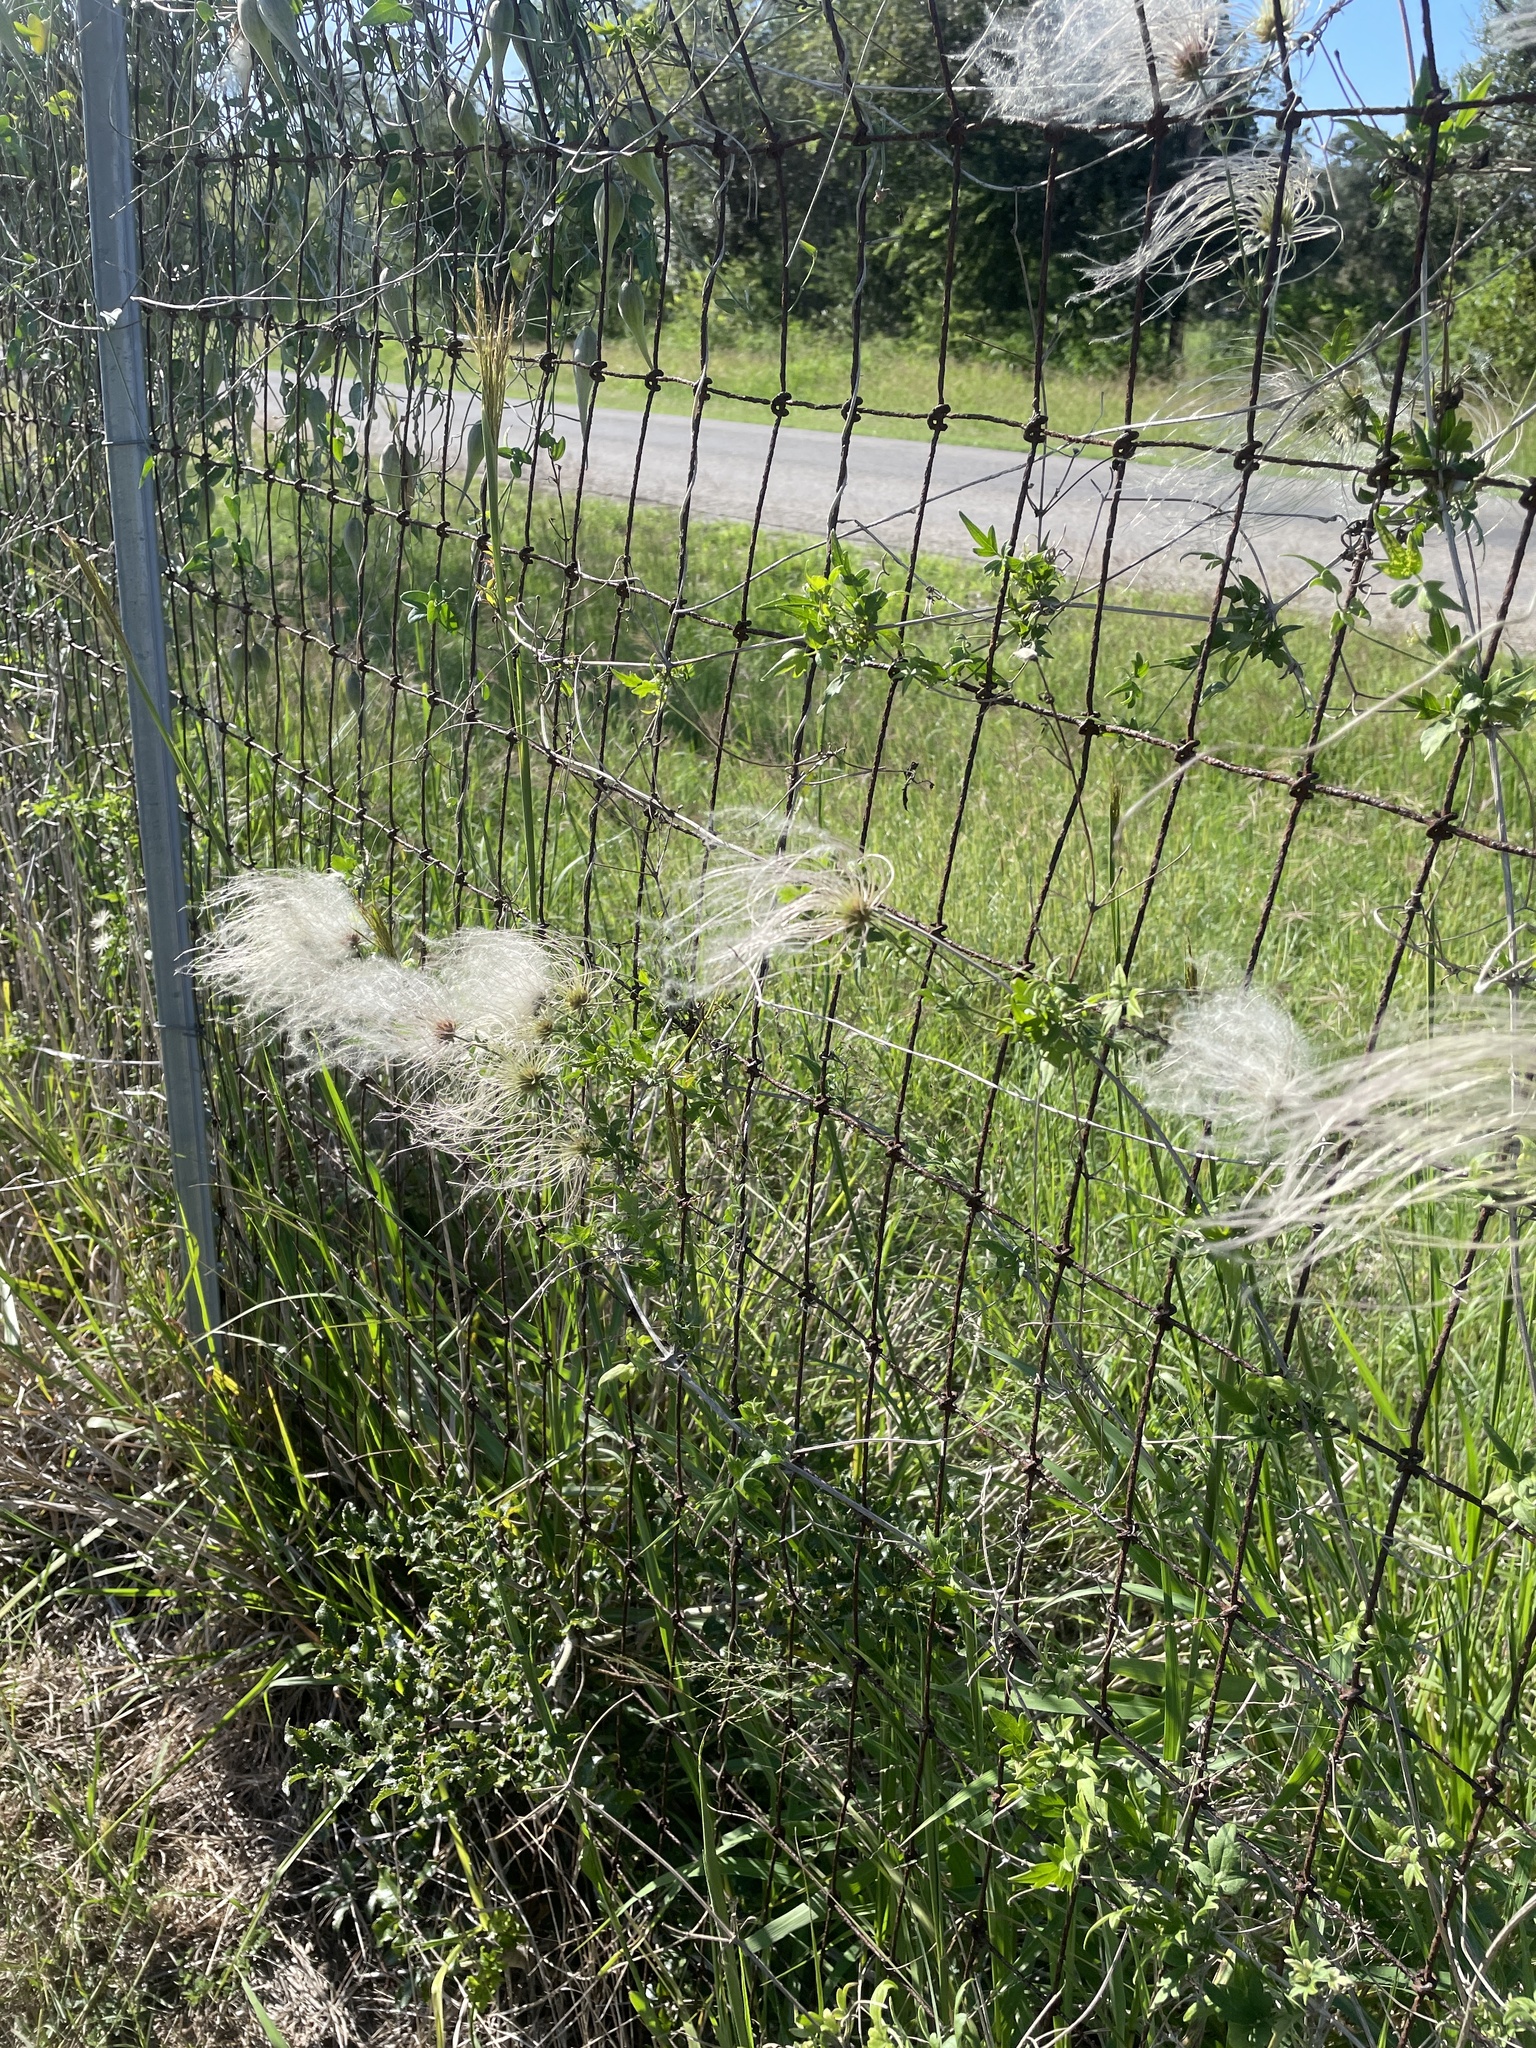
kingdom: Plantae
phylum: Tracheophyta
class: Magnoliopsida
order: Ranunculales
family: Ranunculaceae
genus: Clematis
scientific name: Clematis drummondii
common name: Texas virgin's bower
